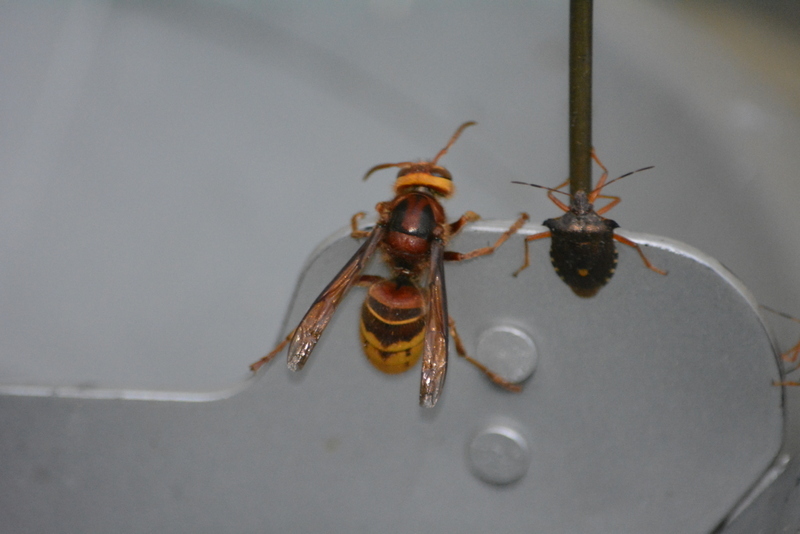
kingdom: Animalia
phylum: Arthropoda
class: Insecta
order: Hymenoptera
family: Vespidae
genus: Vespa
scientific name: Vespa crabro
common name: Hornet
